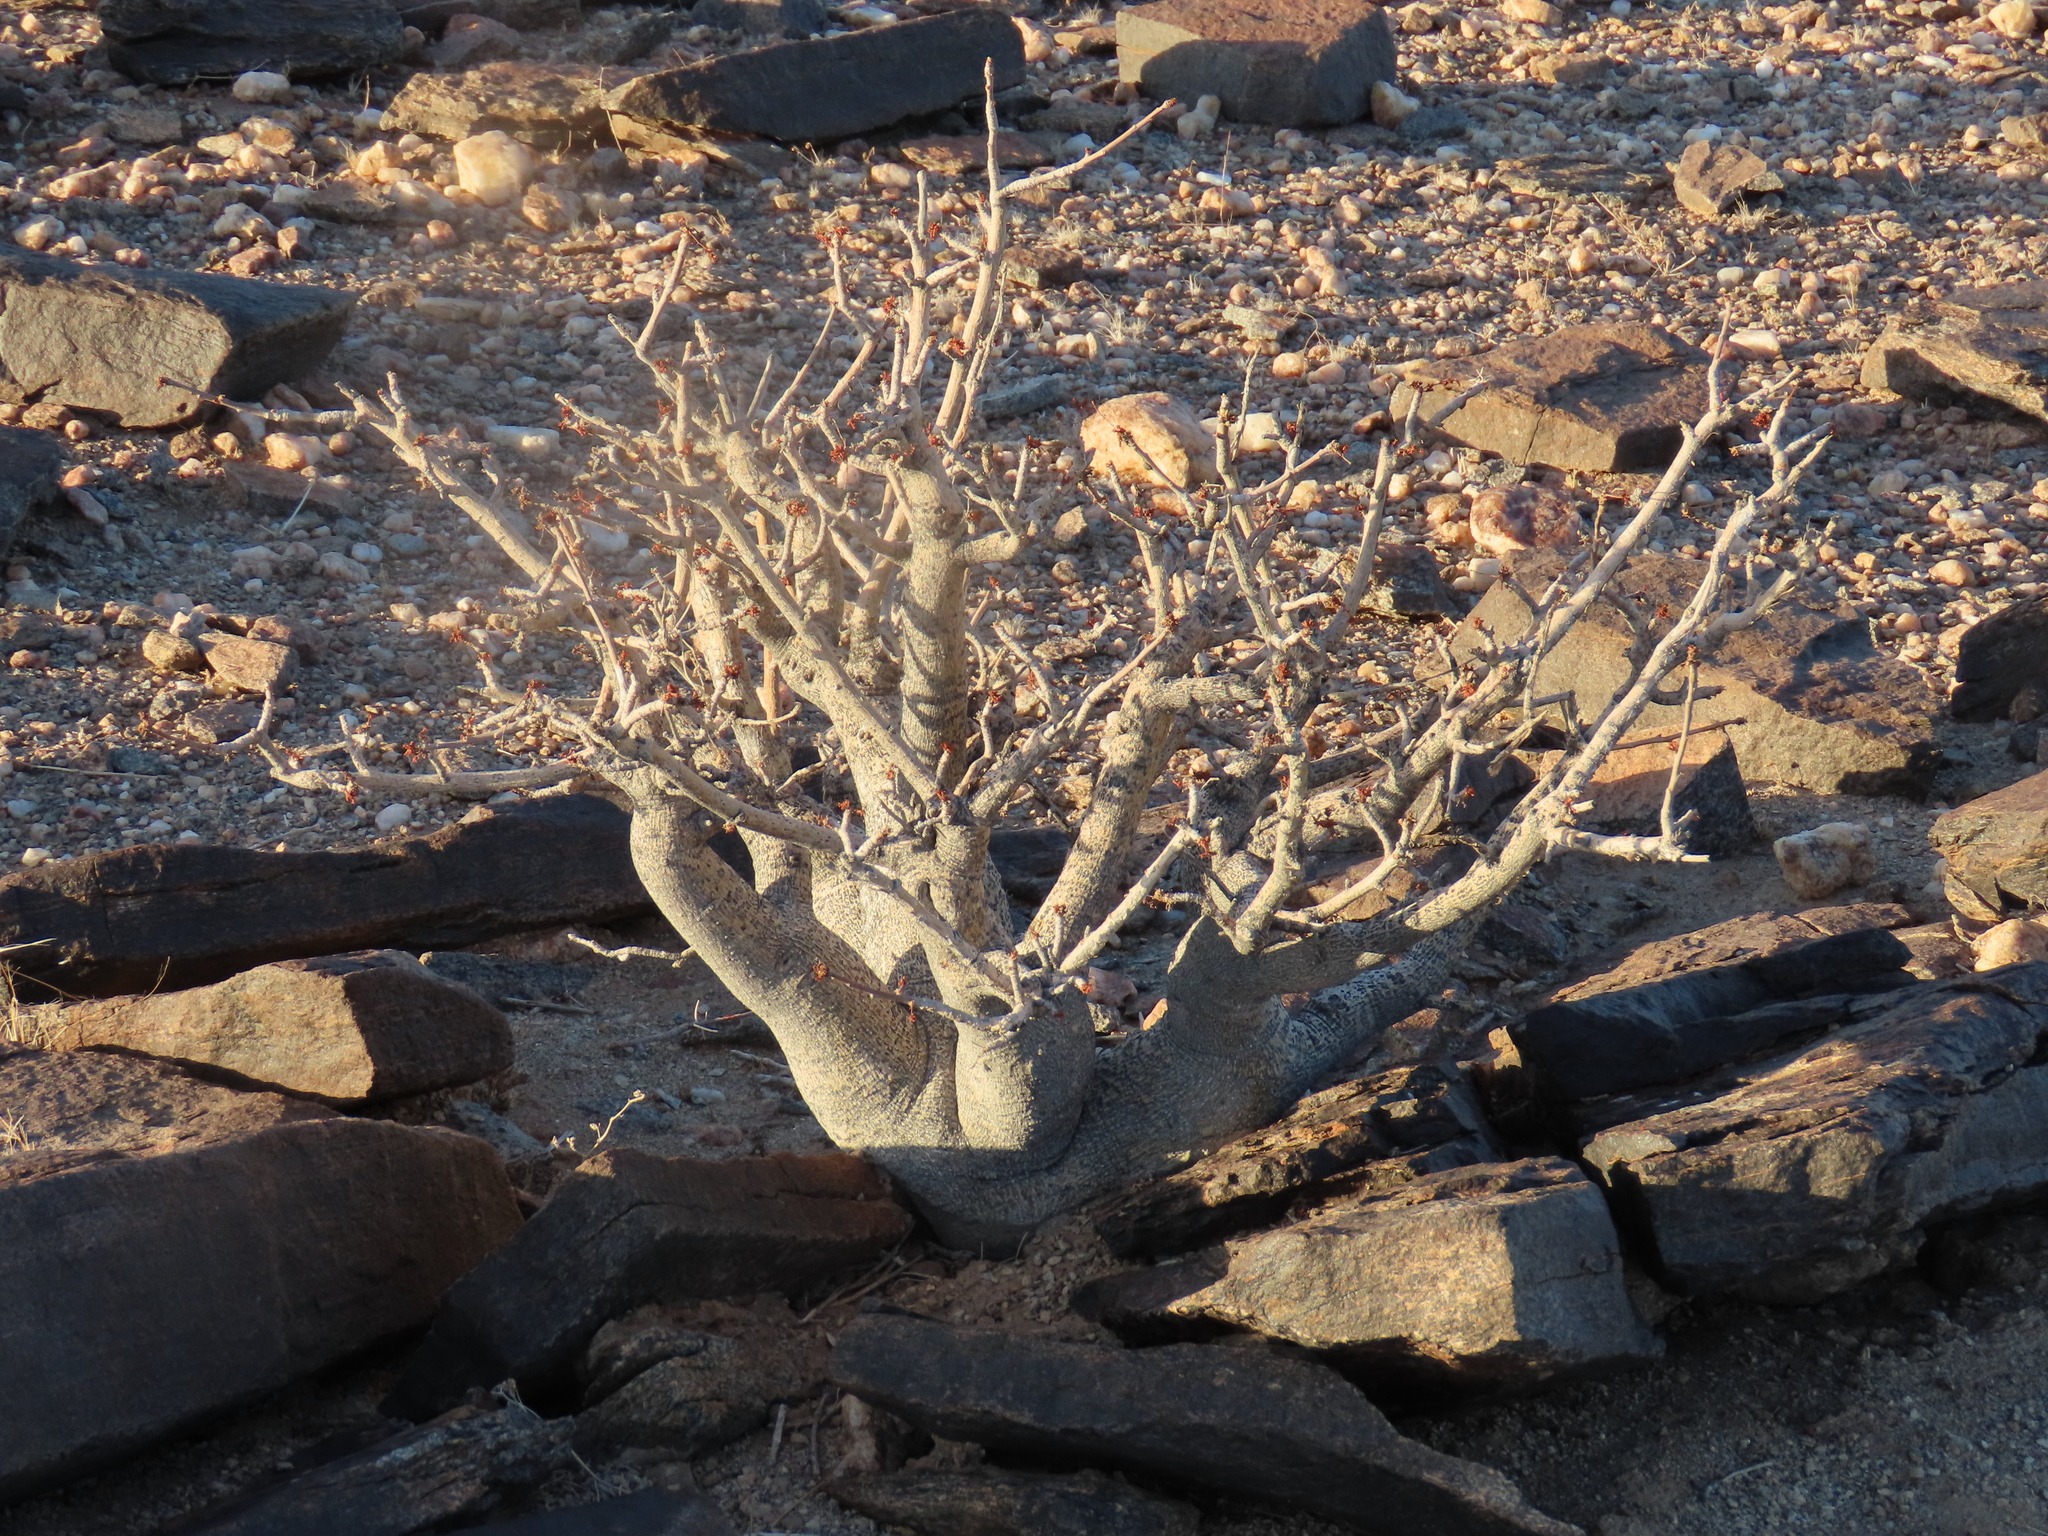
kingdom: Plantae
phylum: Tracheophyta
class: Magnoliopsida
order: Sapindales
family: Burseraceae
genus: Commiphora
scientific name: Commiphora saxicola
